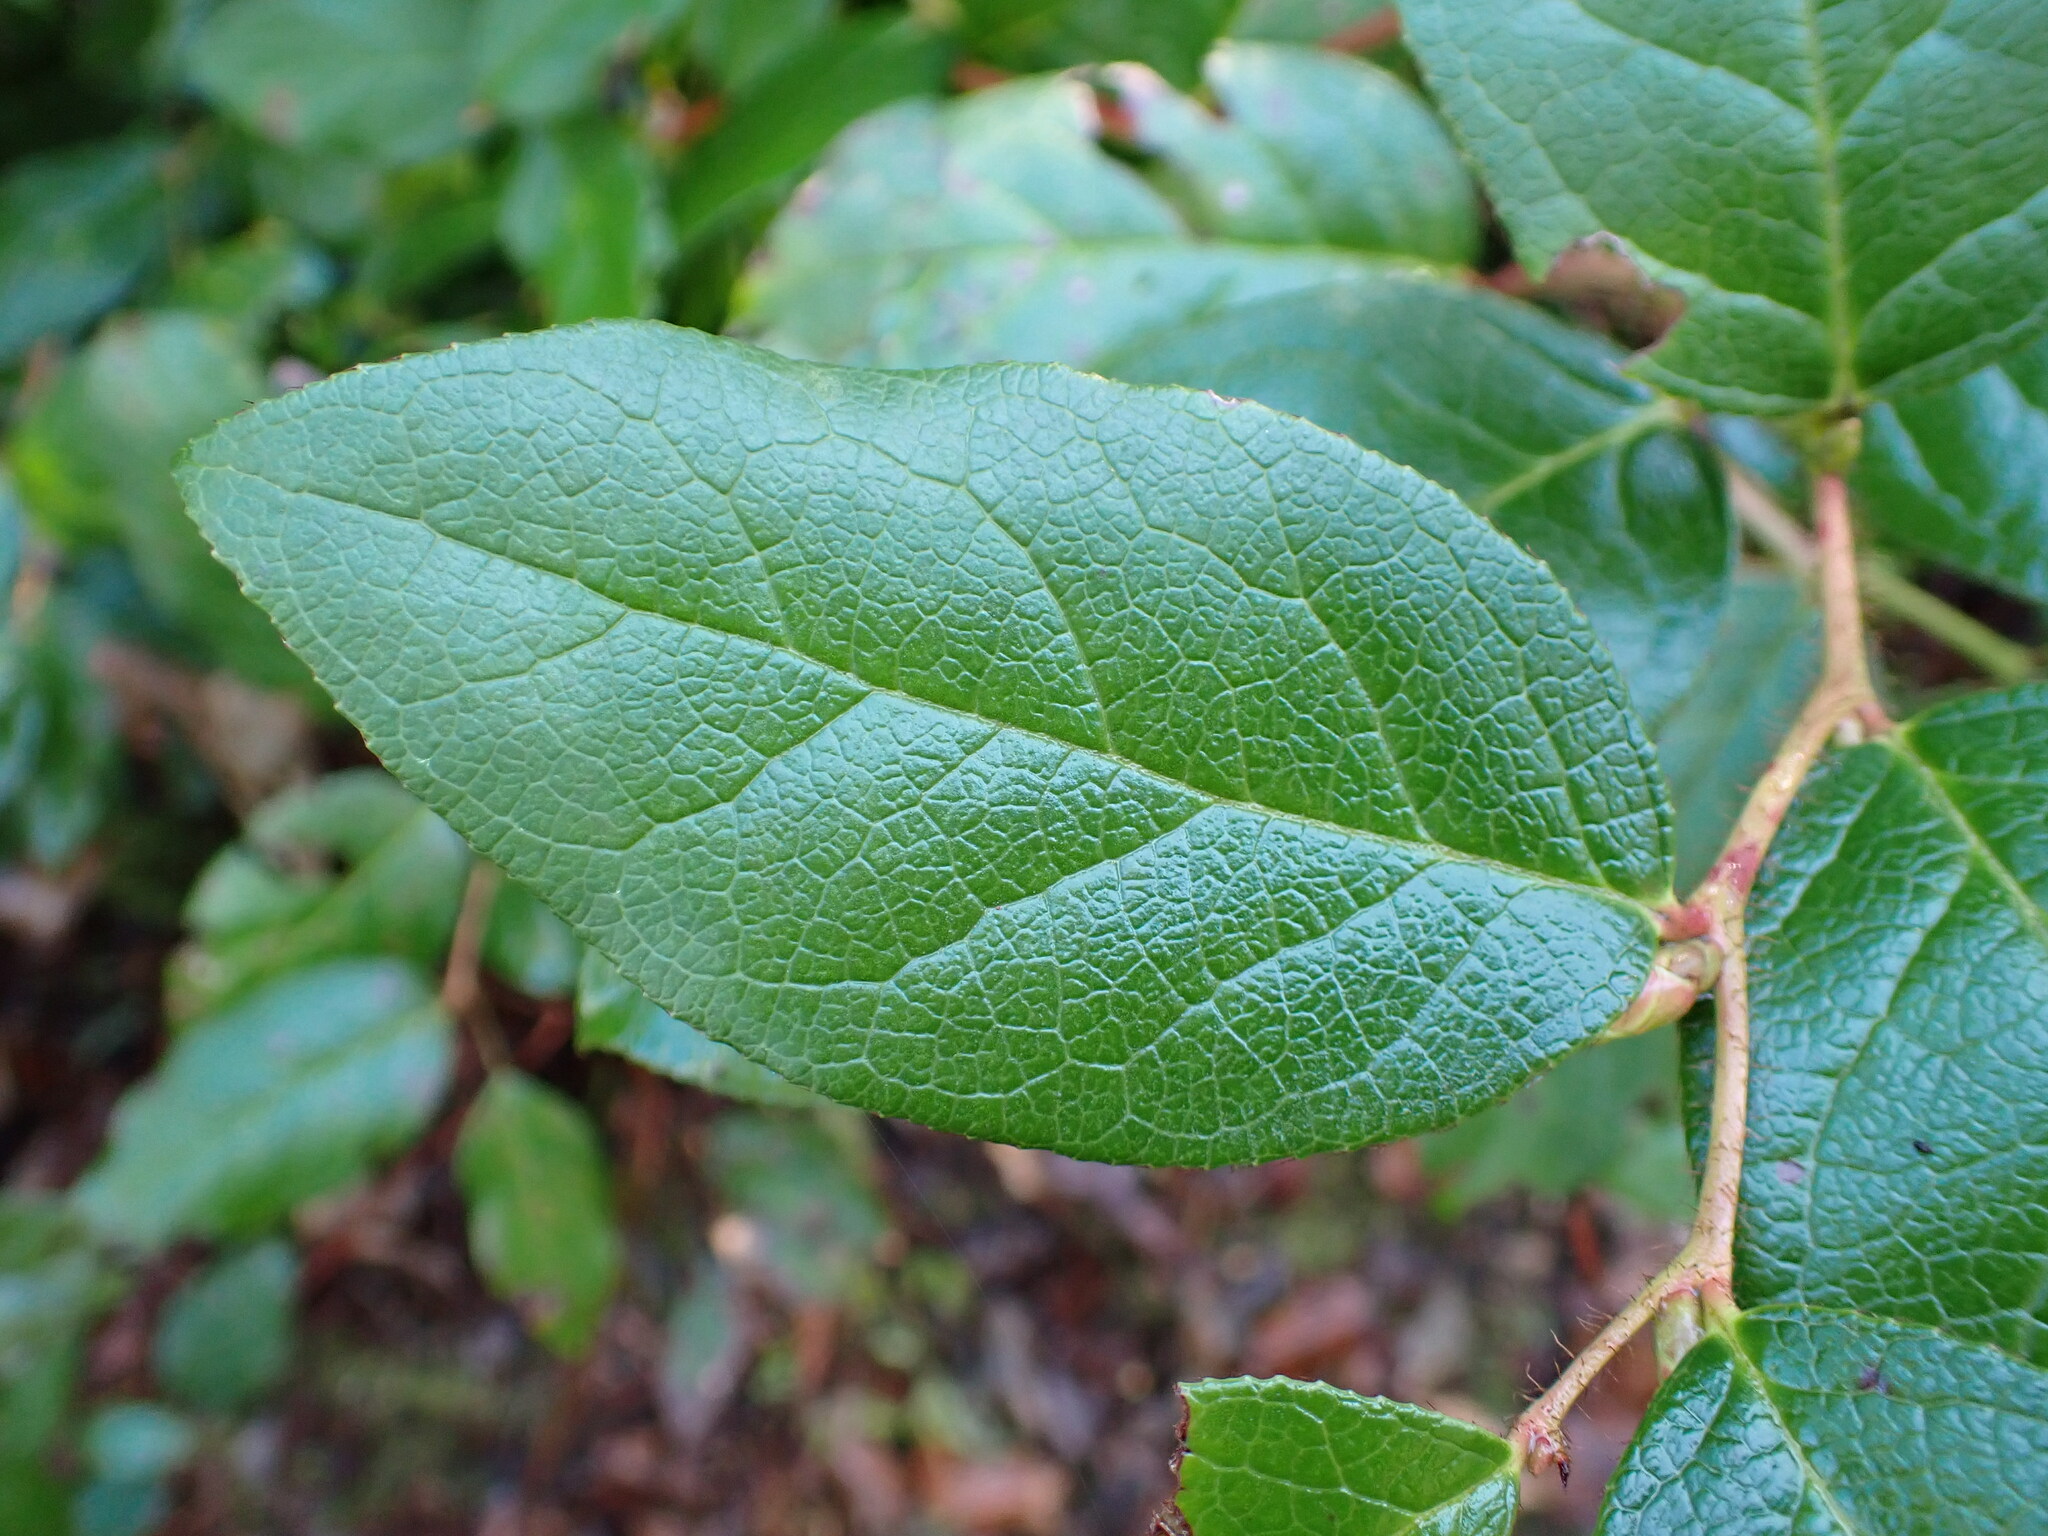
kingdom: Plantae
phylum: Tracheophyta
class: Magnoliopsida
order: Ericales
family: Ericaceae
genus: Gaultheria
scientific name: Gaultheria shallon
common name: Shallon
